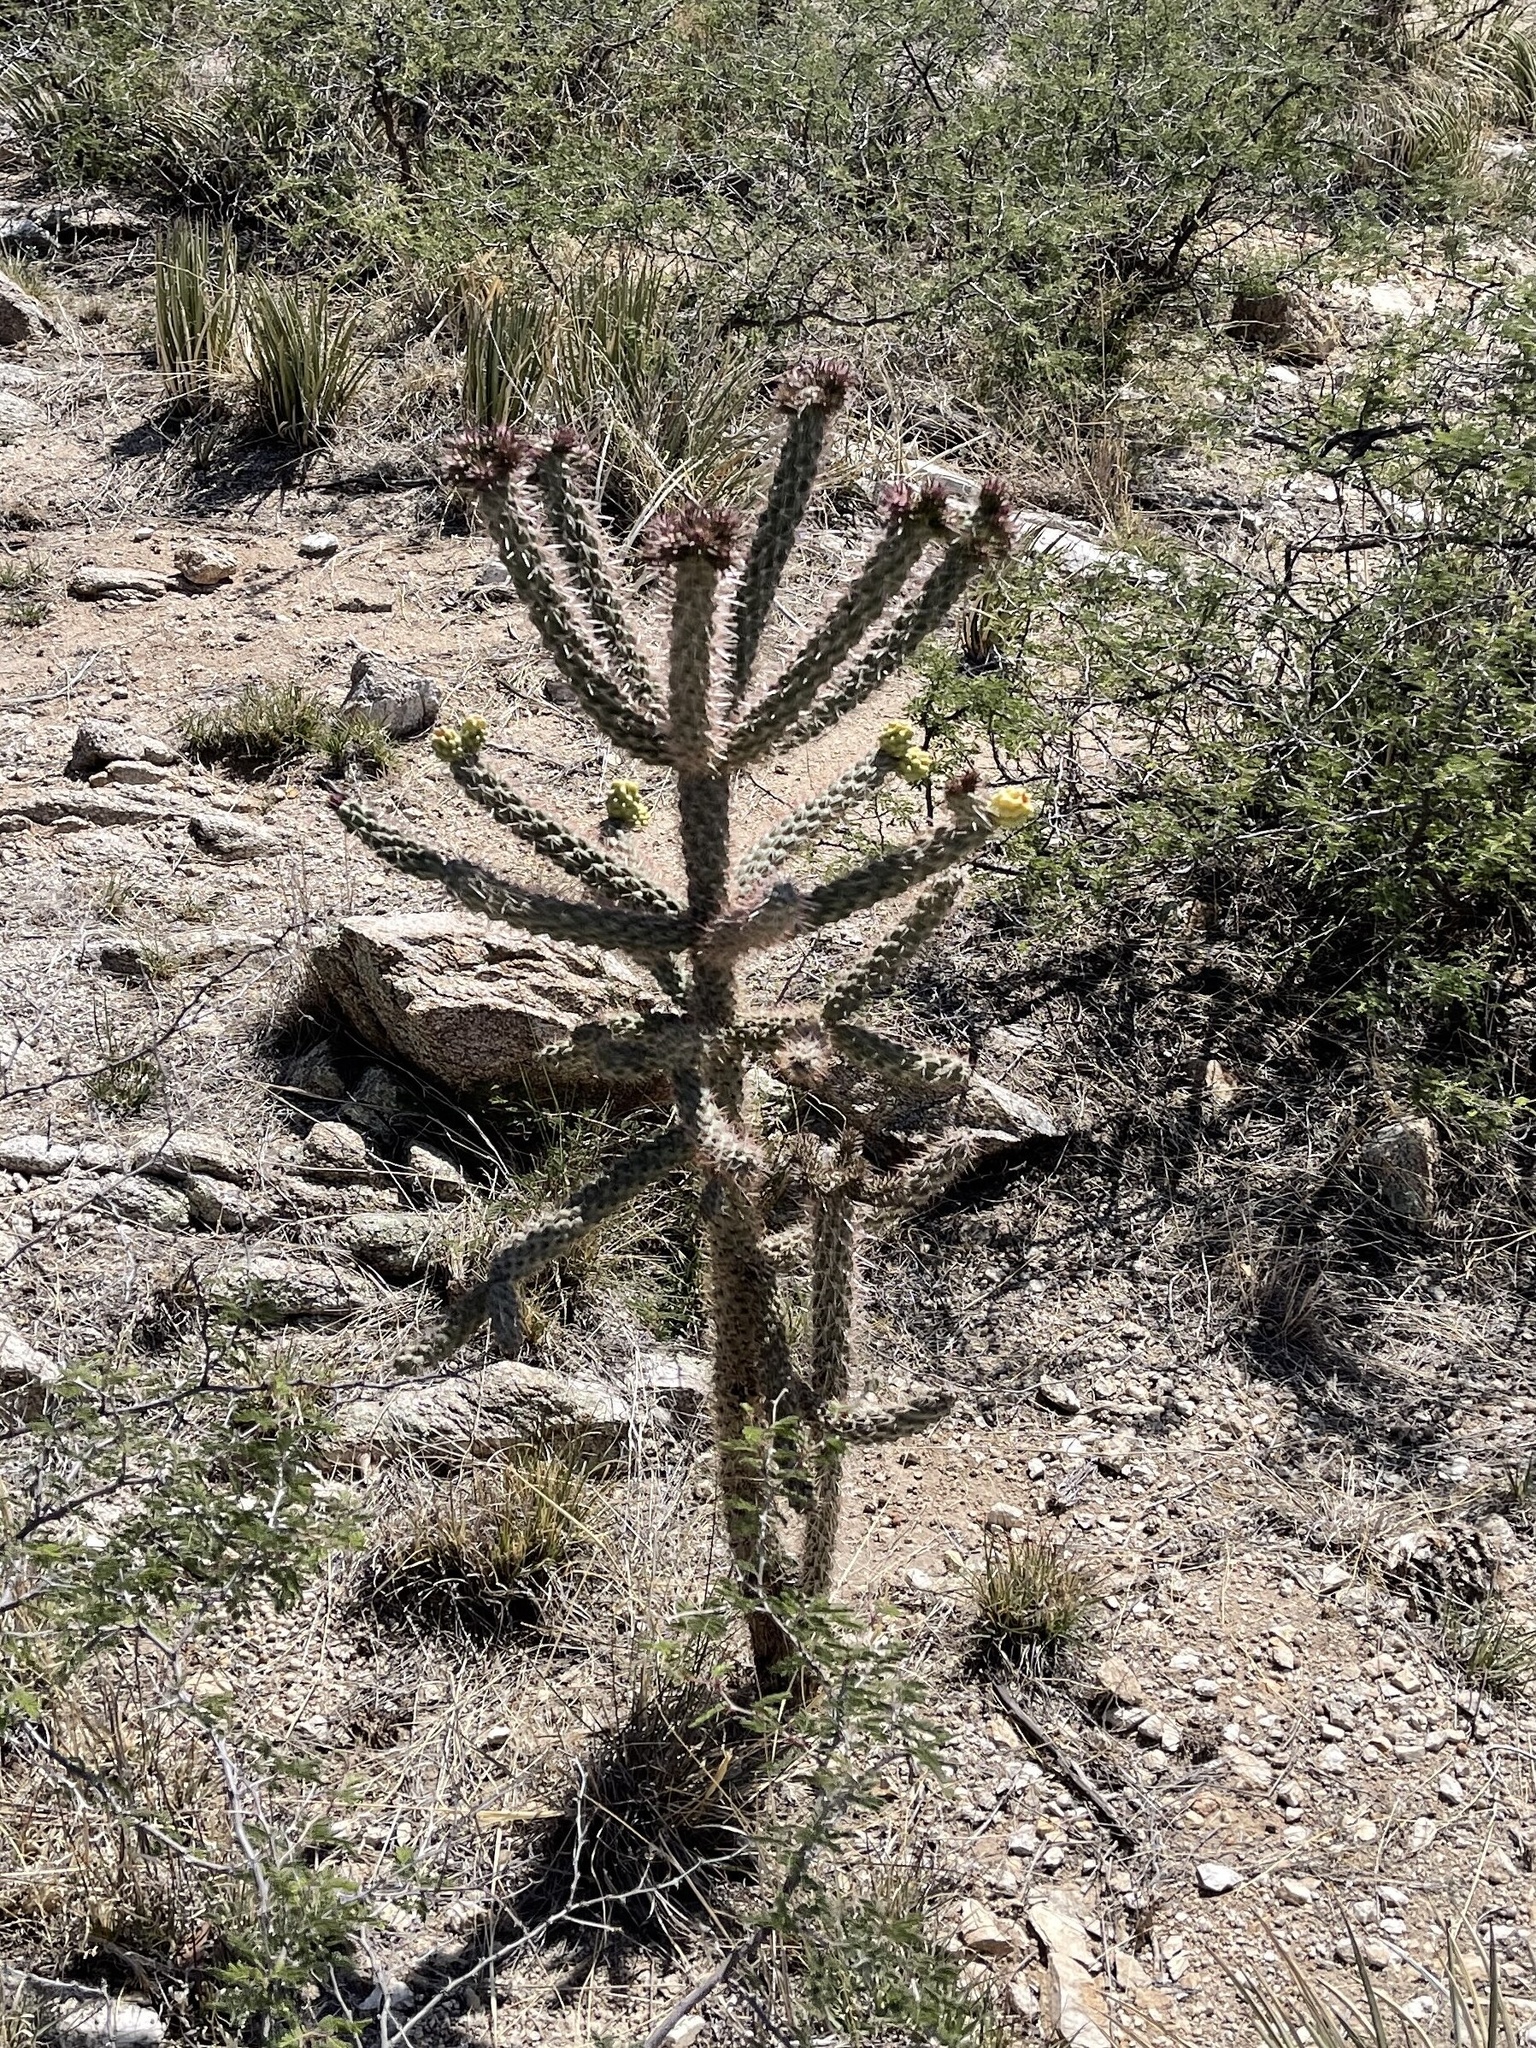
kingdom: Plantae
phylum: Tracheophyta
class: Magnoliopsida
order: Caryophyllales
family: Cactaceae
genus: Cylindropuntia
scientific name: Cylindropuntia imbricata
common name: Candelabrum cactus
